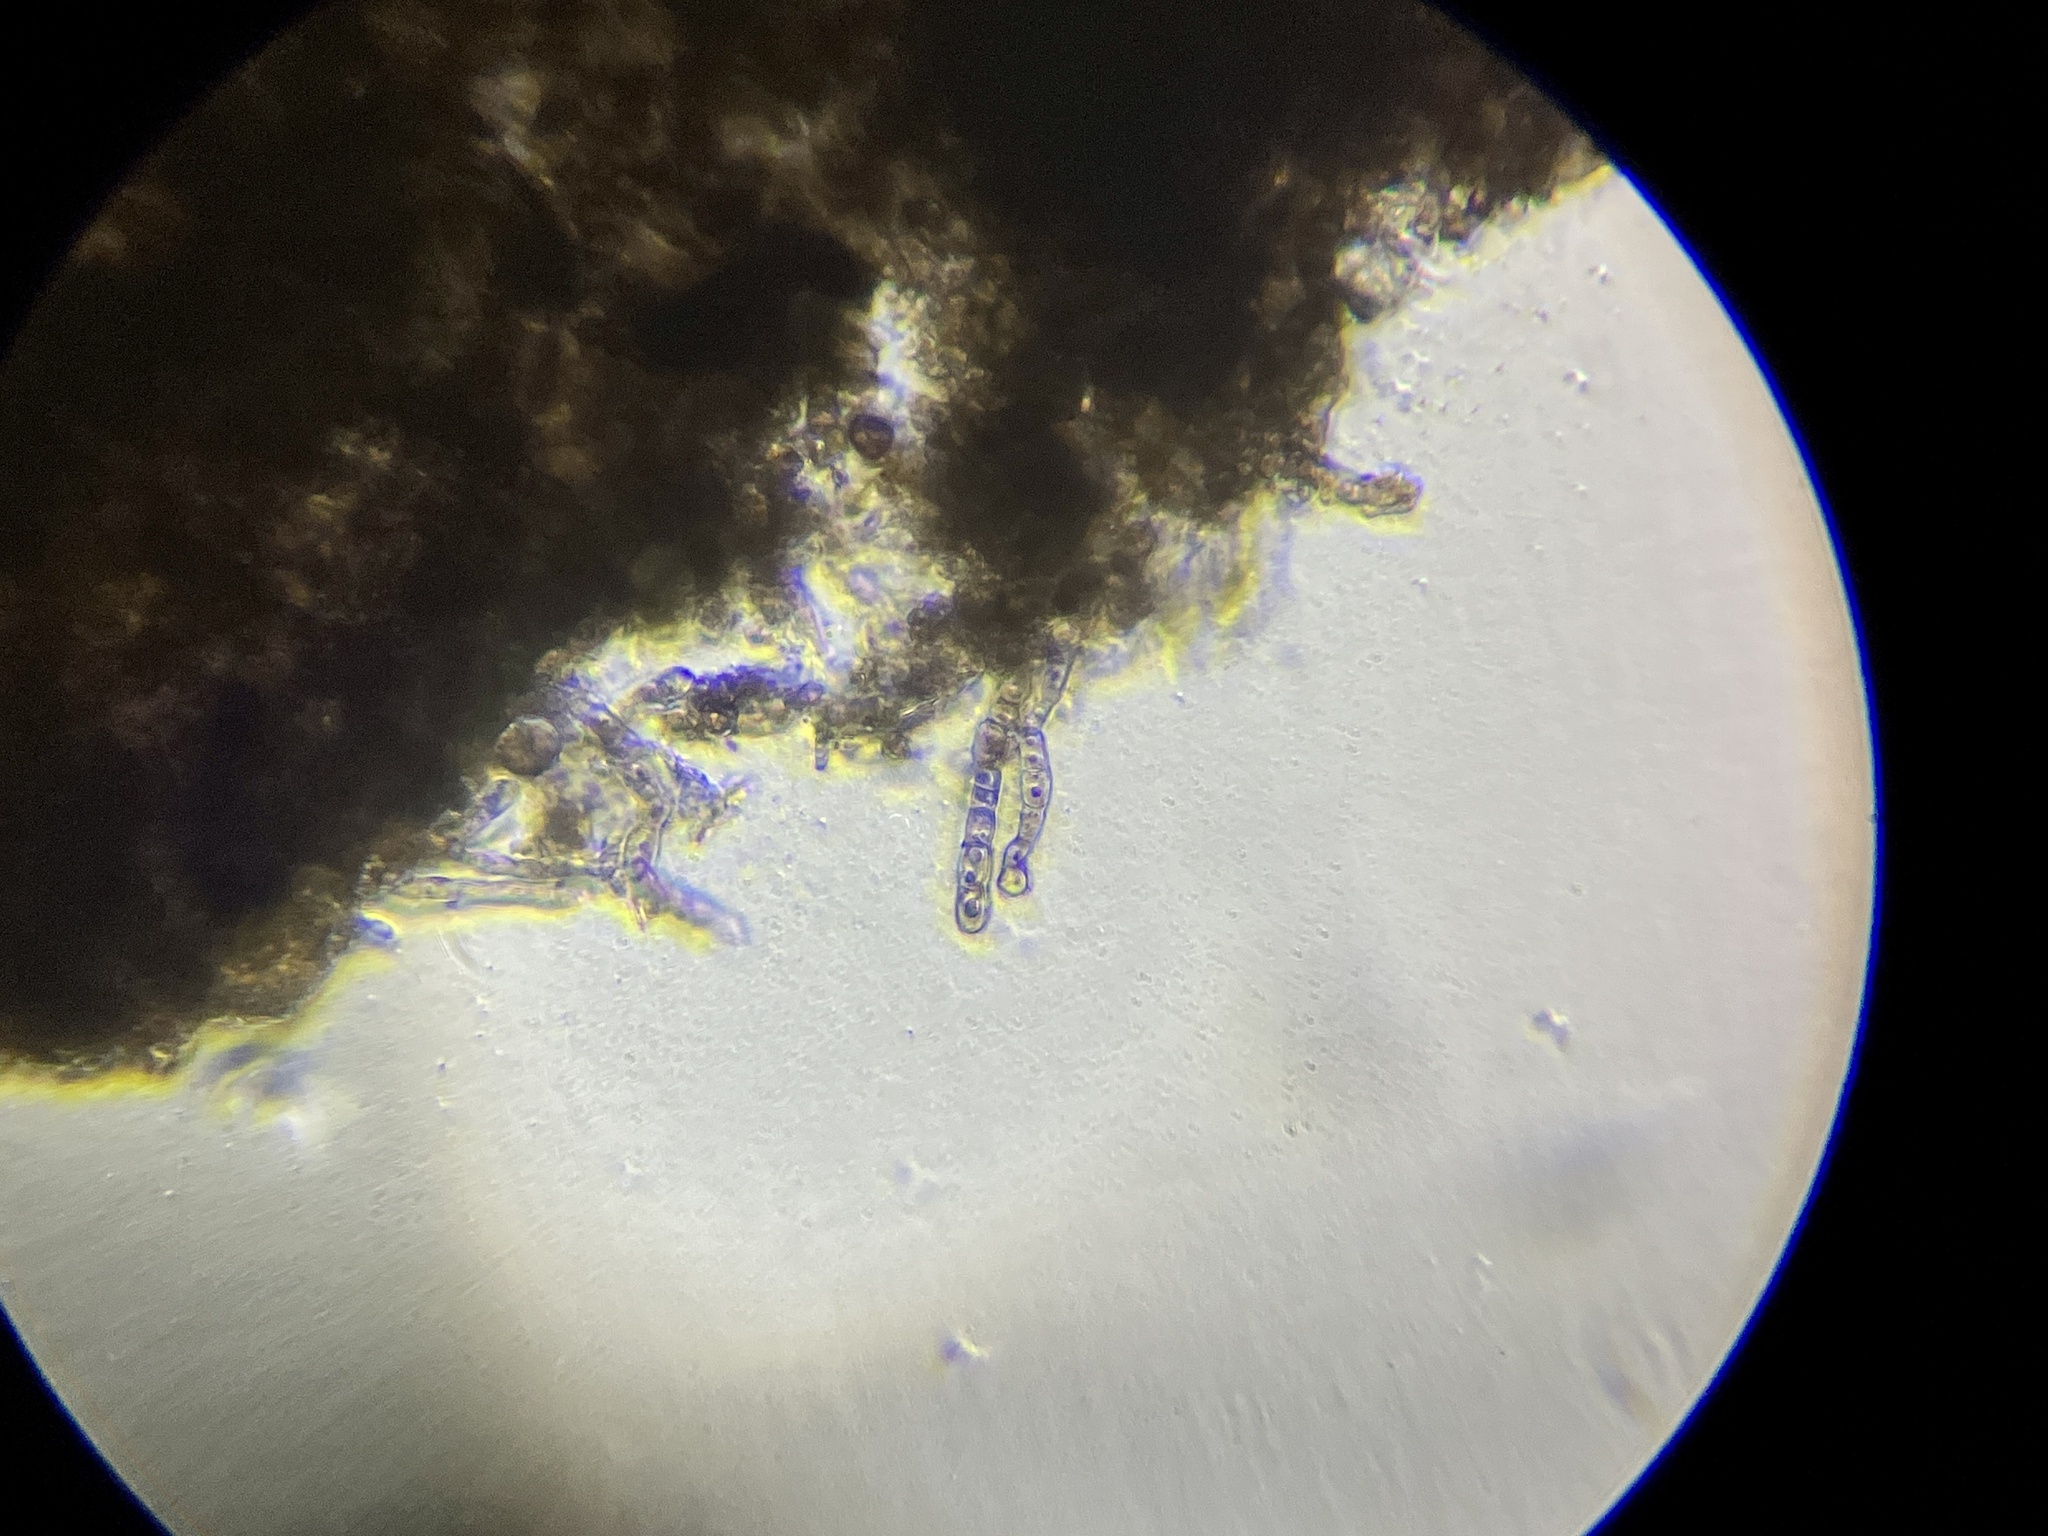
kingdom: Fungi
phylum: Ascomycota
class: Dothideomycetes
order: Capnodiales
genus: Baudoinia
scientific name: Baudoinia compniacensis
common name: Angel's share
